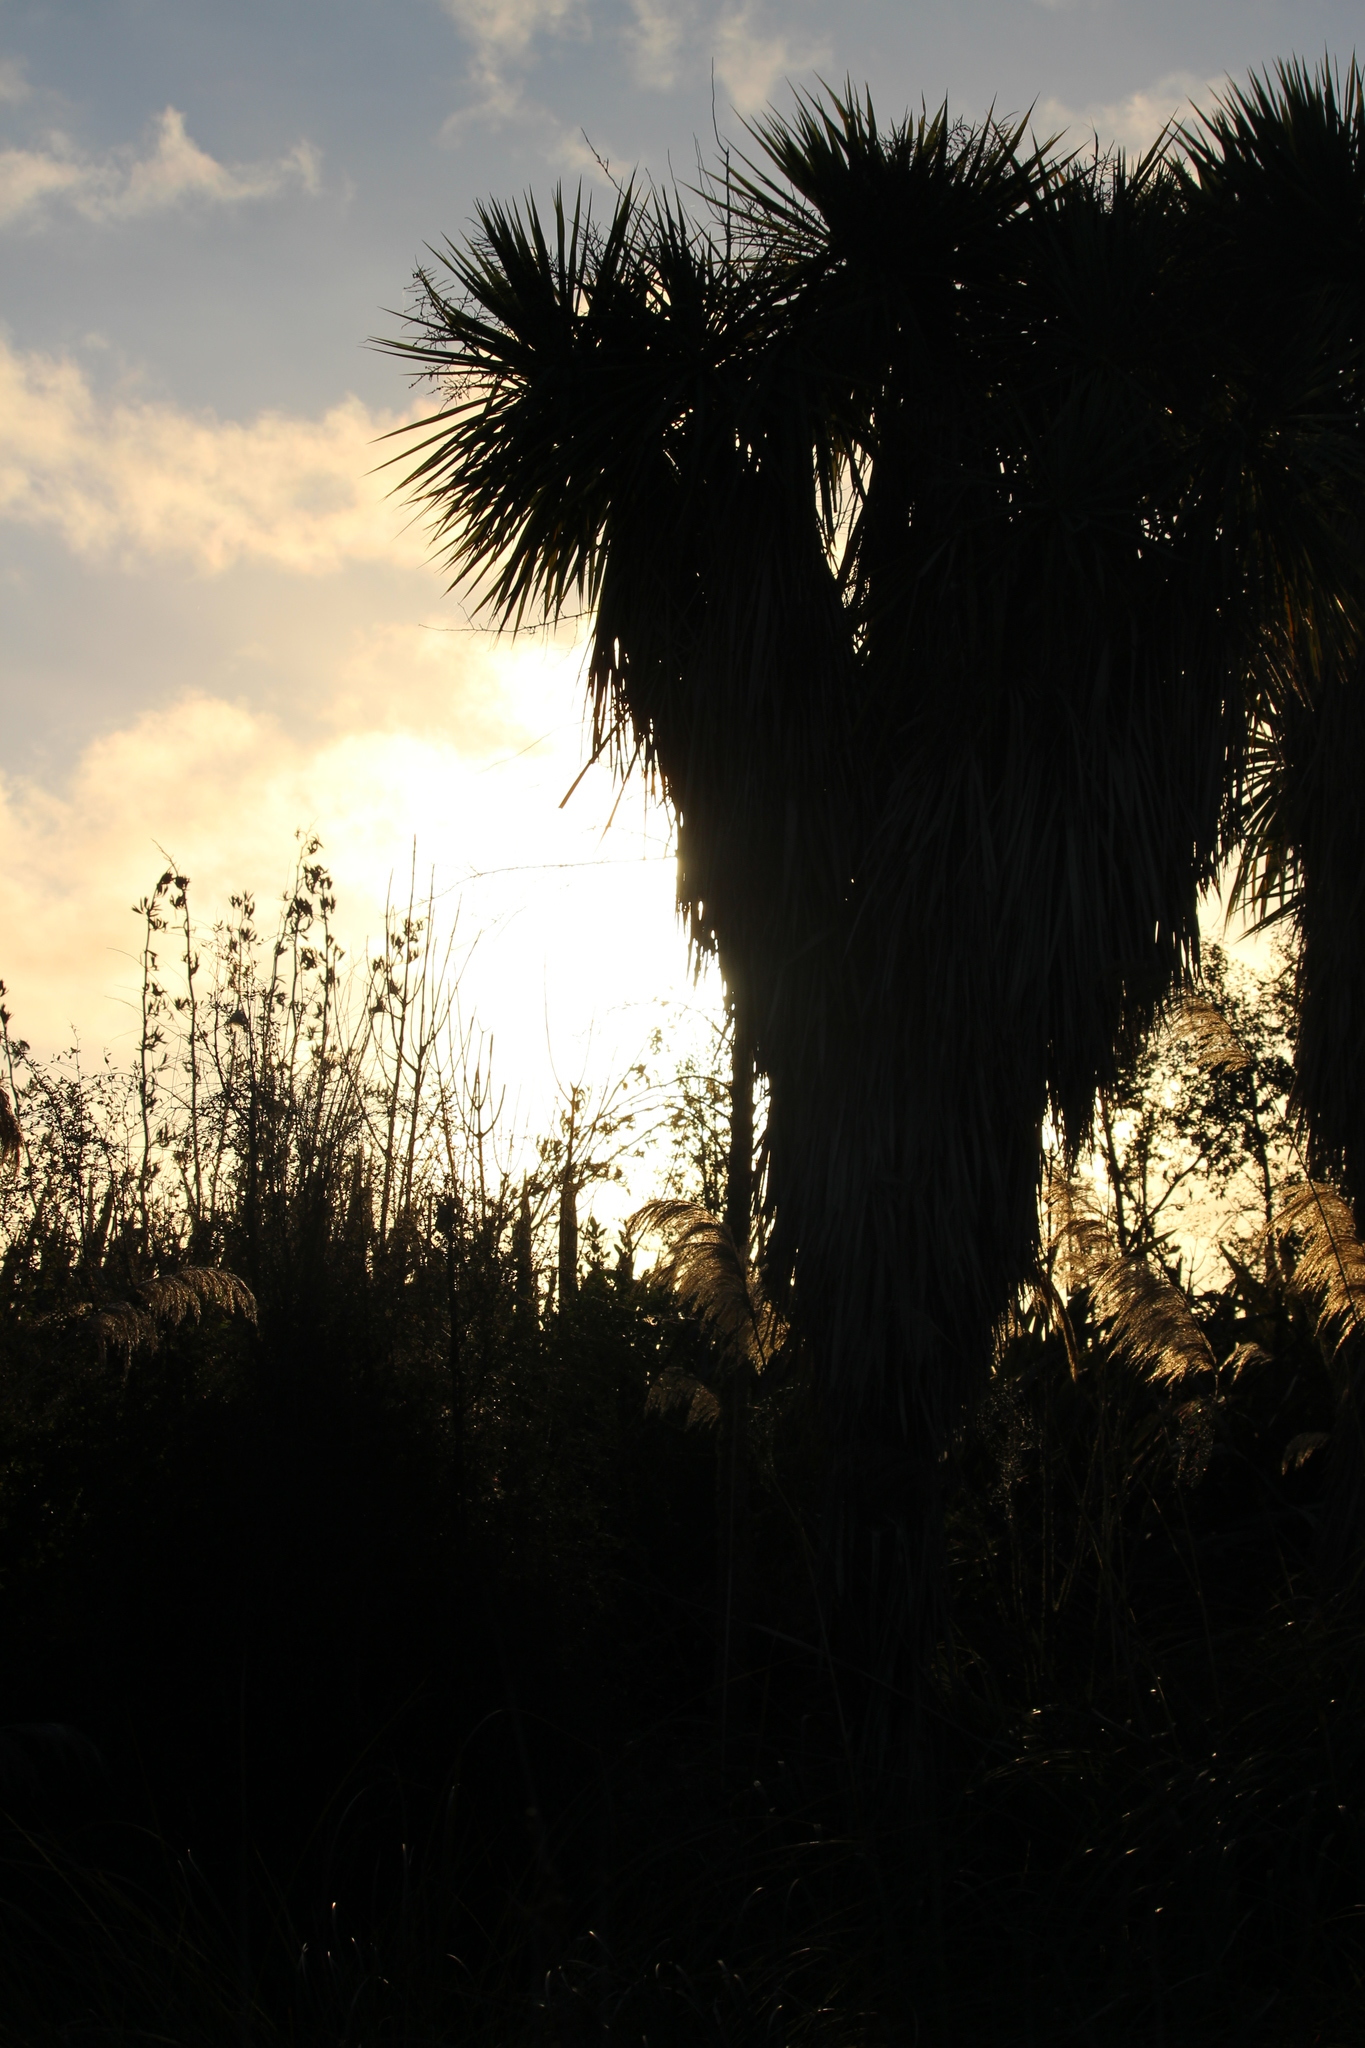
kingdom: Plantae
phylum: Tracheophyta
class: Liliopsida
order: Asparagales
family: Asparagaceae
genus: Cordyline
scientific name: Cordyline australis
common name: Cabbage-palm
